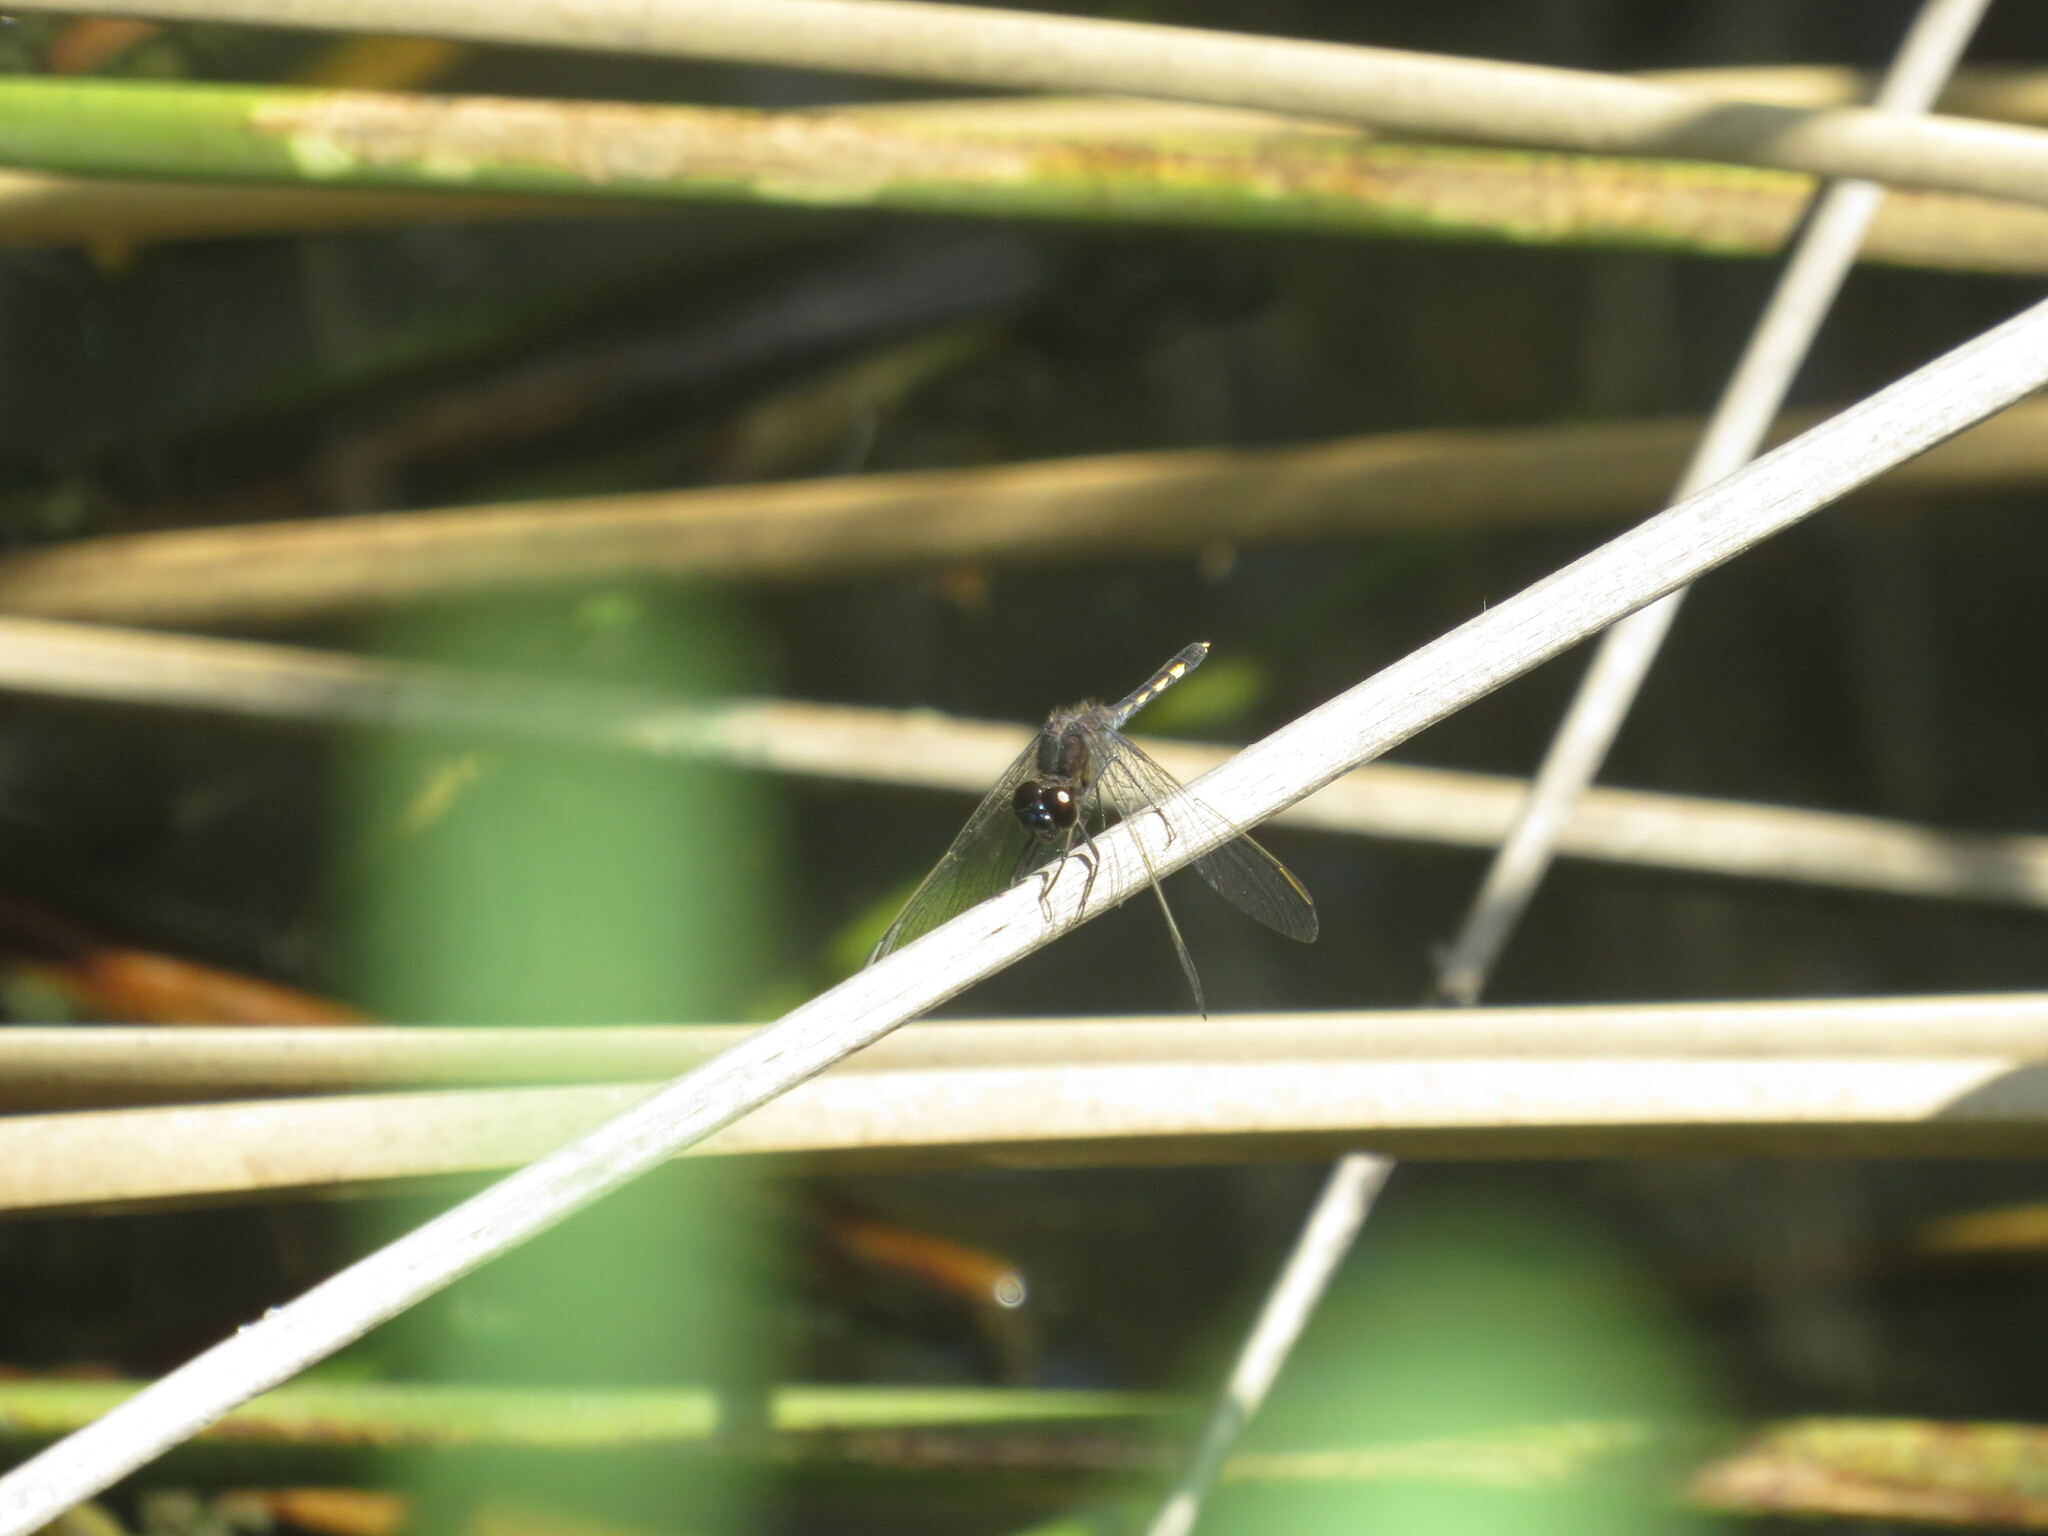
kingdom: Animalia
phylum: Arthropoda
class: Insecta
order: Odonata
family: Libellulidae
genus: Erythrodiplax
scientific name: Erythrodiplax nigricans
